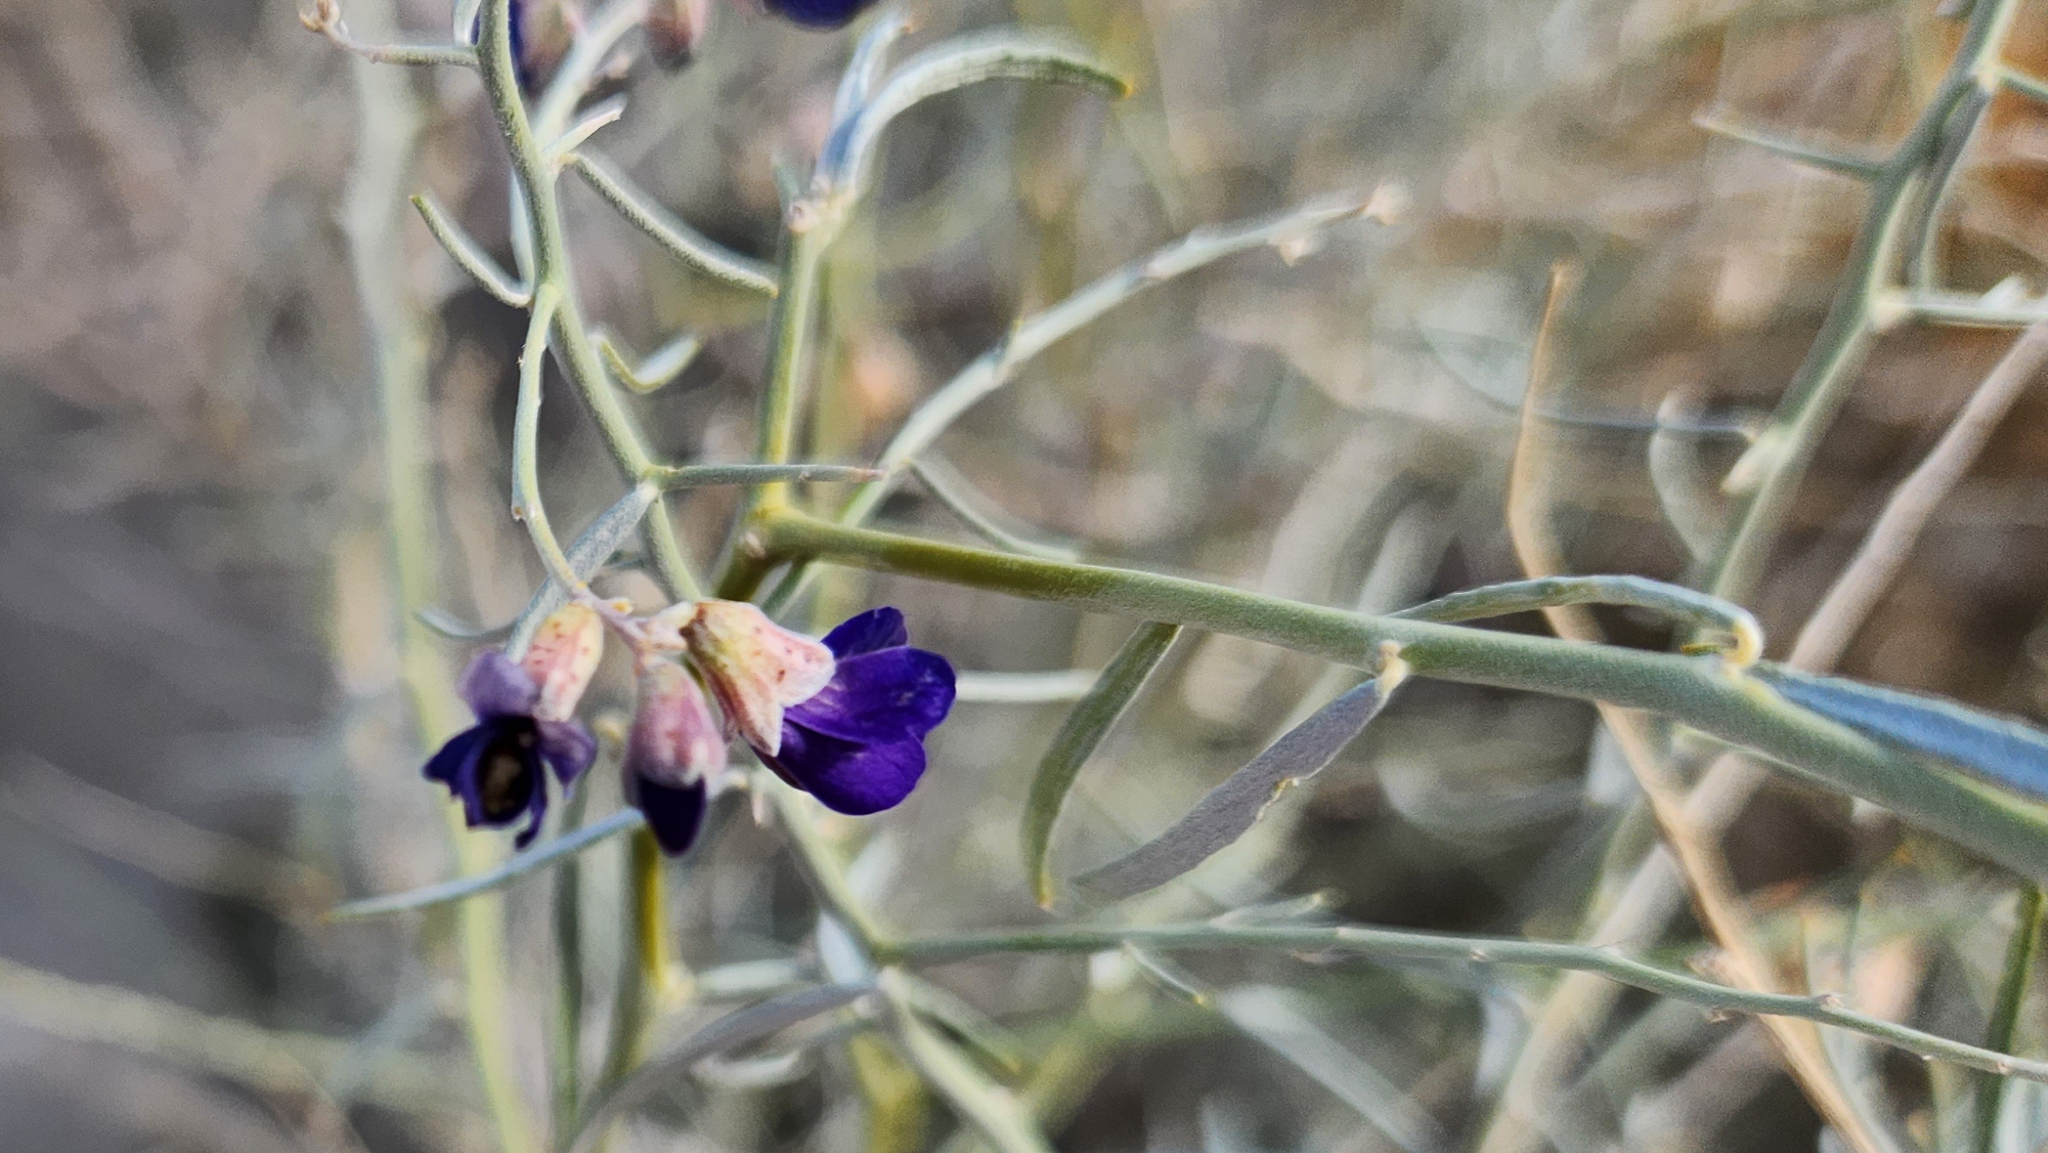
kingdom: Plantae
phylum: Tracheophyta
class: Magnoliopsida
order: Fabales
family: Fabaceae
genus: Psorothamnus
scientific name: Psorothamnus schottii
